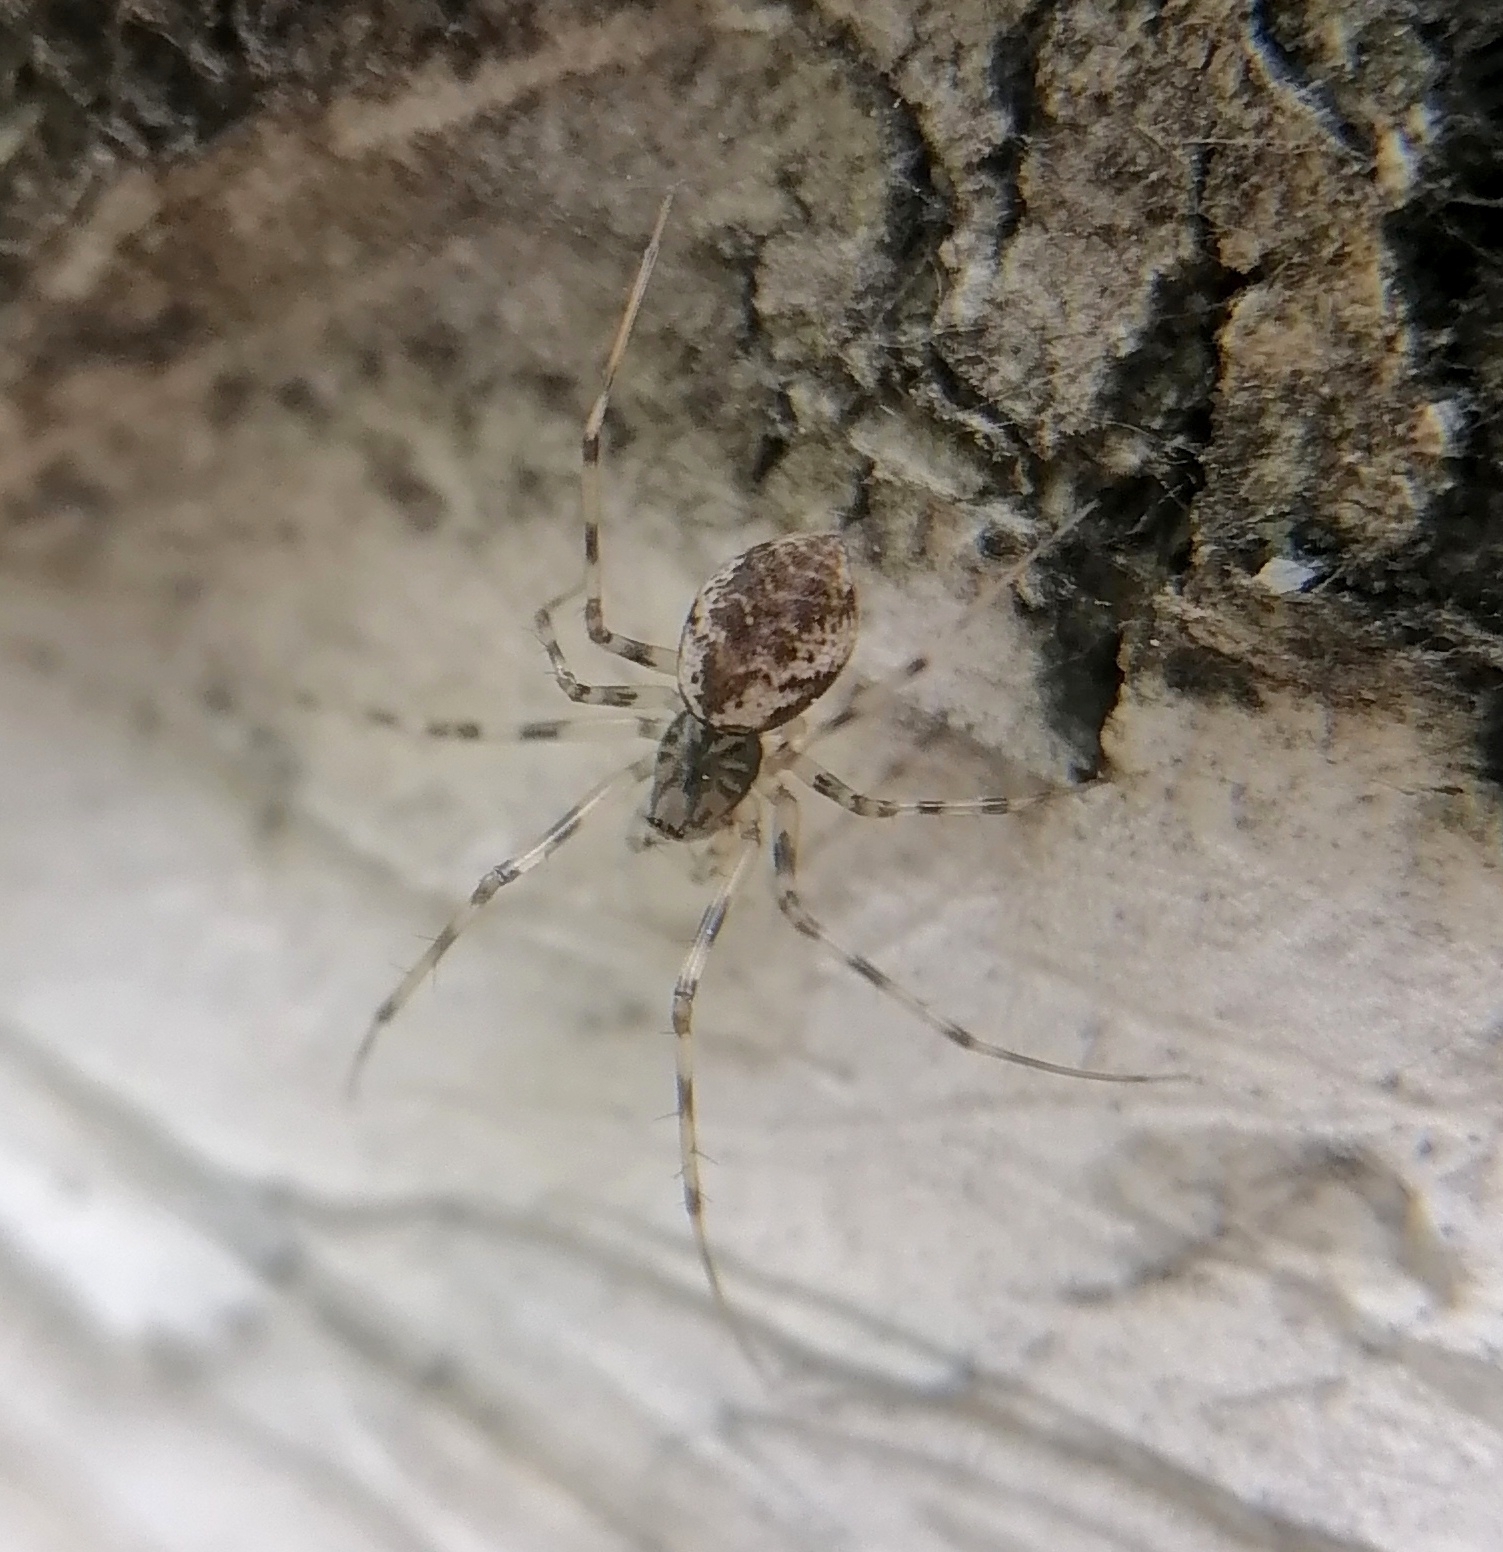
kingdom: Animalia
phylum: Arthropoda
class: Arachnida
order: Araneae
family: Linyphiidae
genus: Drapetisca
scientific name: Drapetisca socialis
